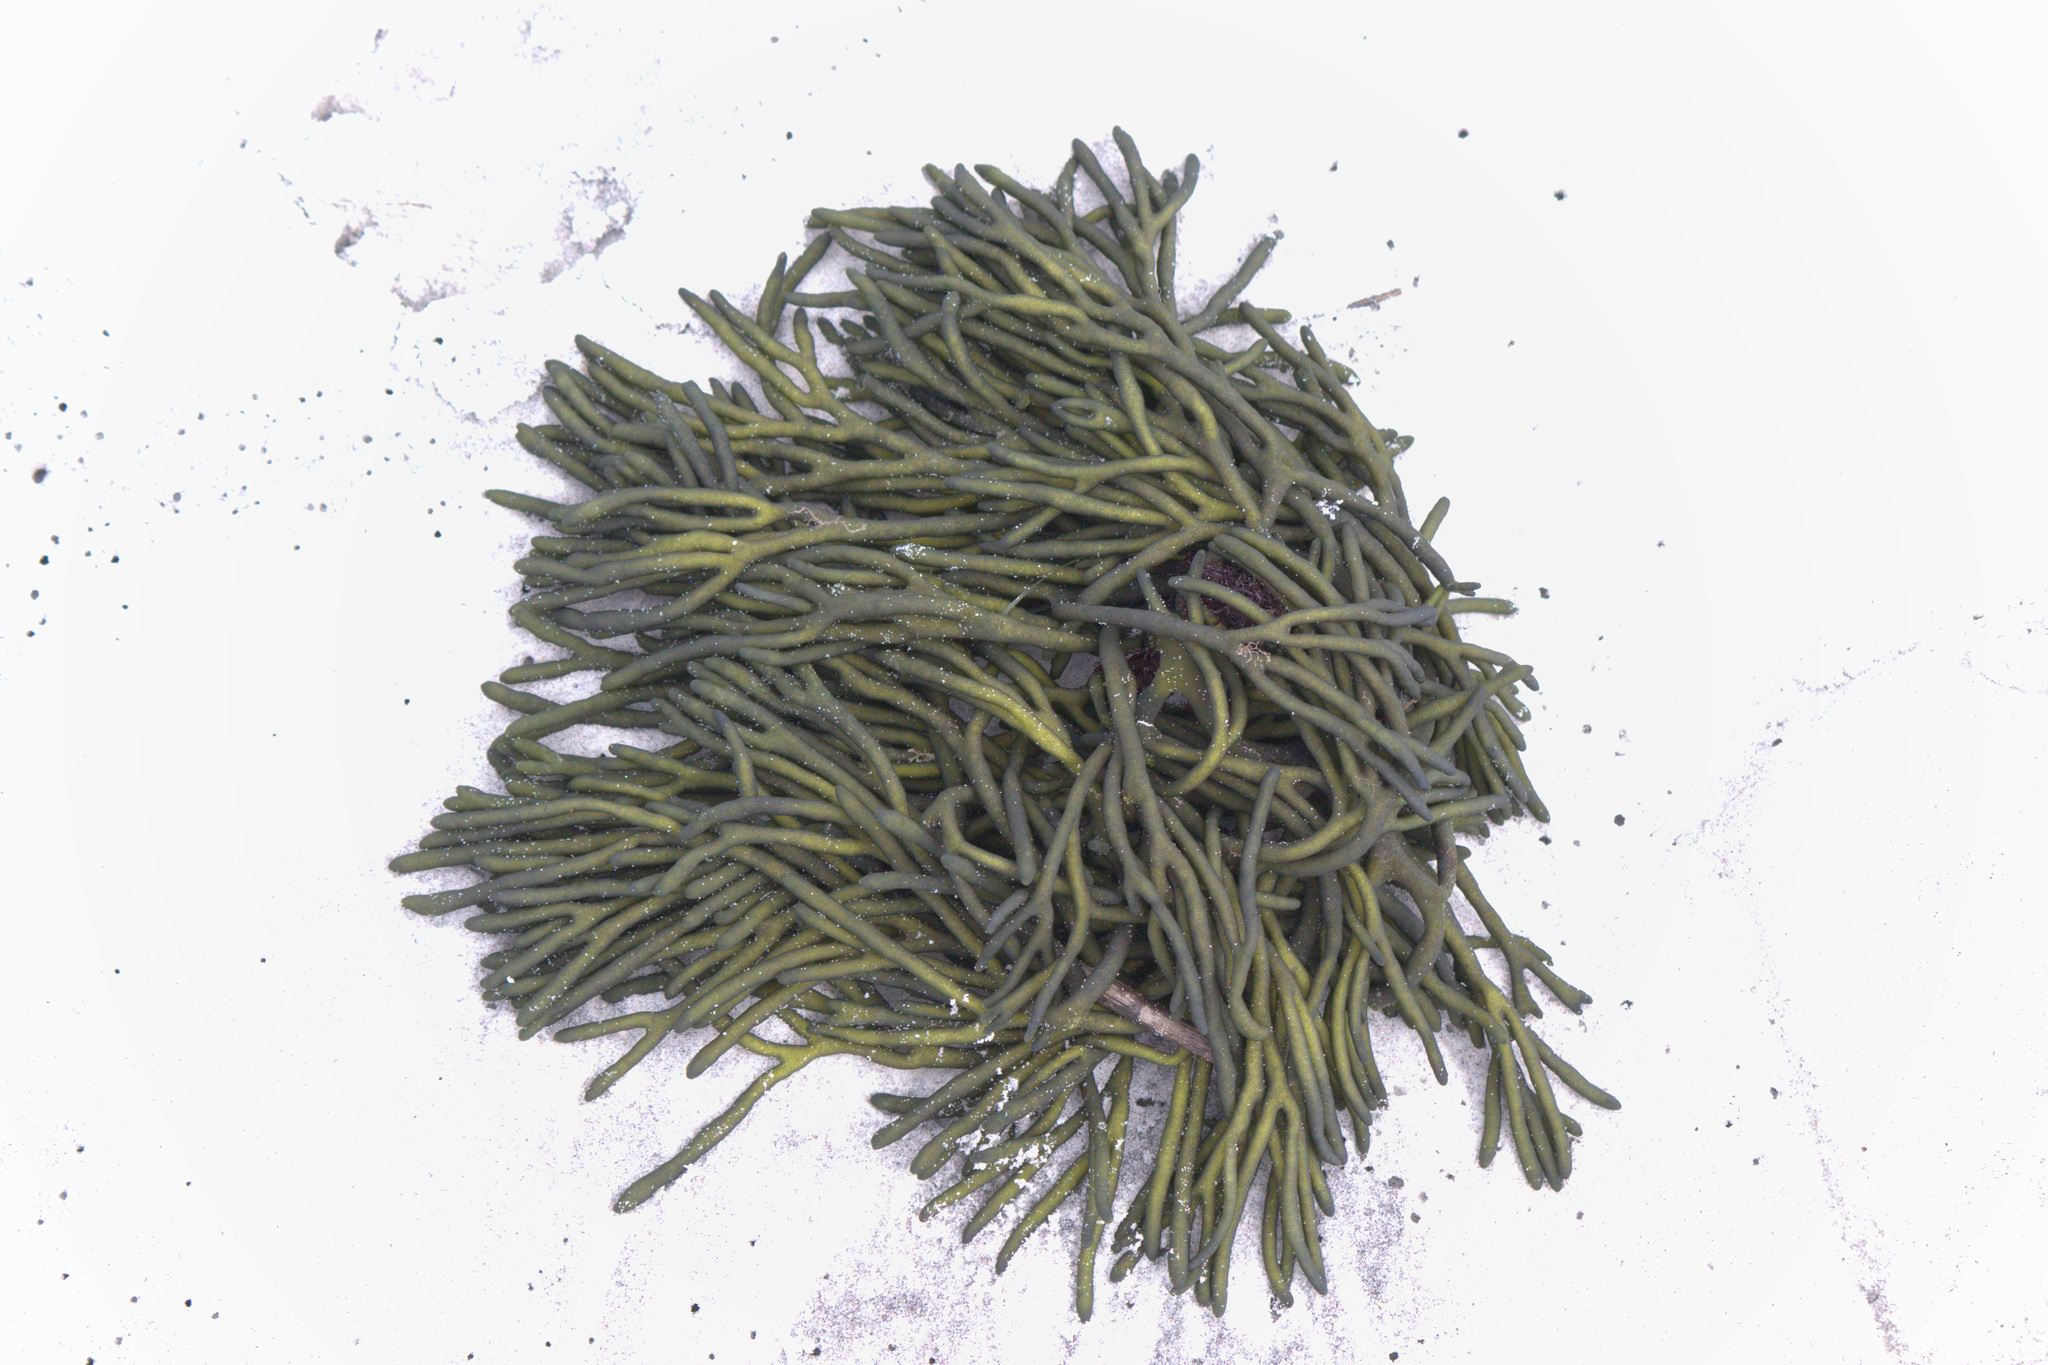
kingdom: Plantae
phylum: Chlorophyta
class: Ulvophyceae
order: Bryopsidales
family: Codiaceae
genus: Codium
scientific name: Codium fragile
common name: Dead man's fingers
